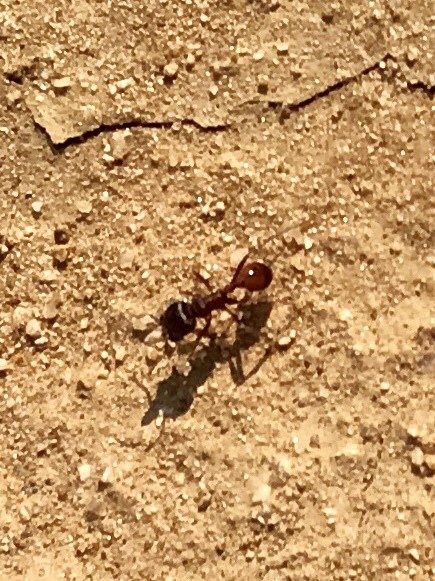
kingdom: Animalia
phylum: Arthropoda
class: Insecta
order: Hymenoptera
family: Formicidae
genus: Pogonomyrmex
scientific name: Pogonomyrmex rugosus
